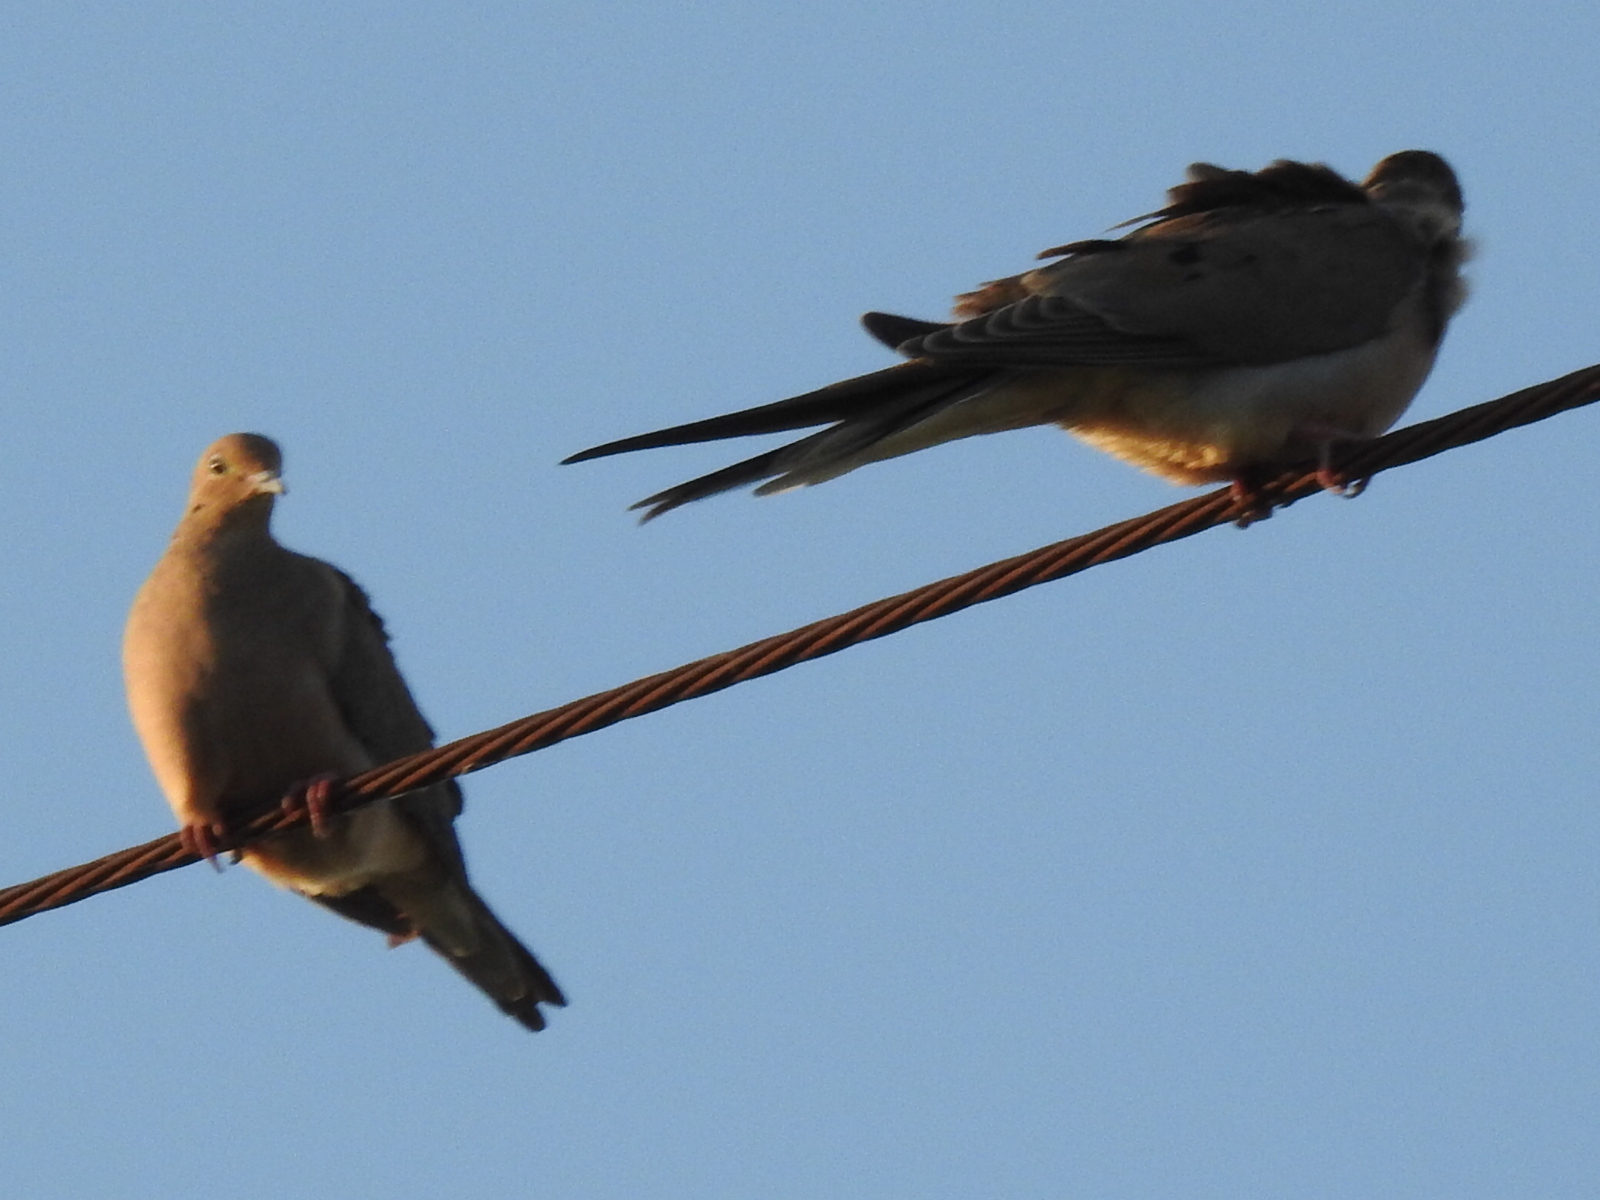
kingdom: Animalia
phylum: Chordata
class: Aves
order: Columbiformes
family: Columbidae
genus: Zenaida
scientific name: Zenaida macroura
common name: Mourning dove
